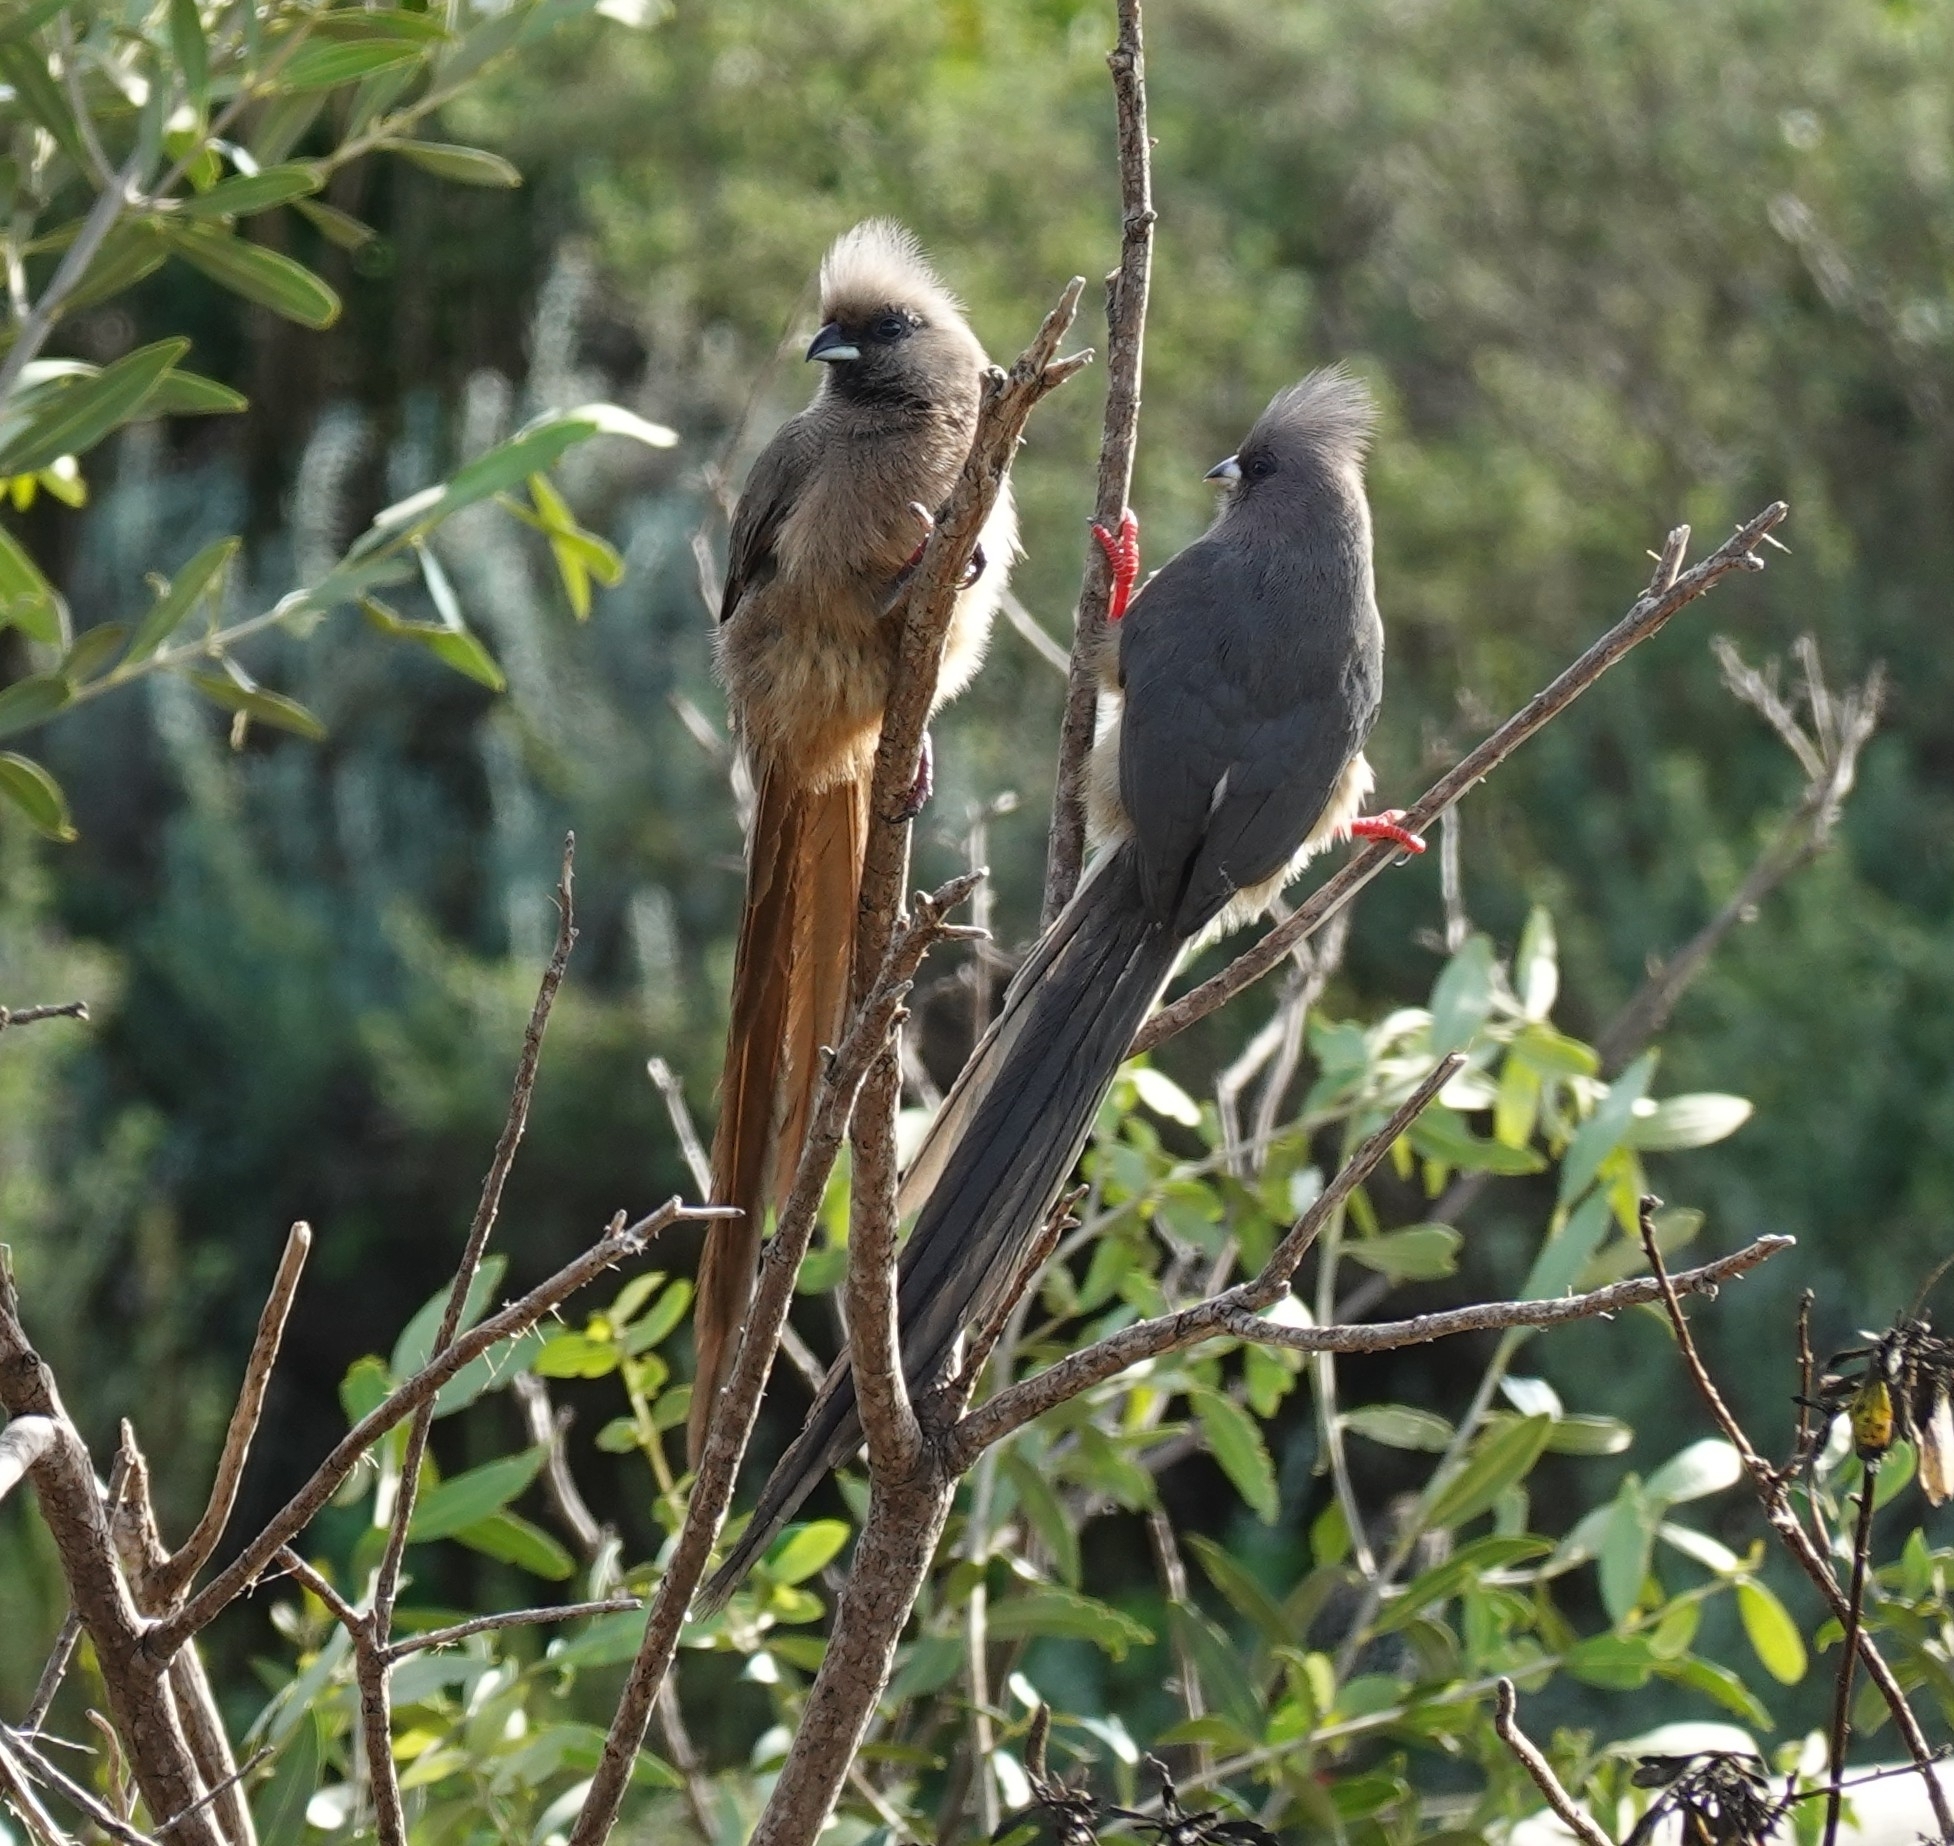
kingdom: Animalia
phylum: Chordata
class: Aves
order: Coliiformes
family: Coliidae
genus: Colius
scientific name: Colius striatus
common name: Speckled mousebird
